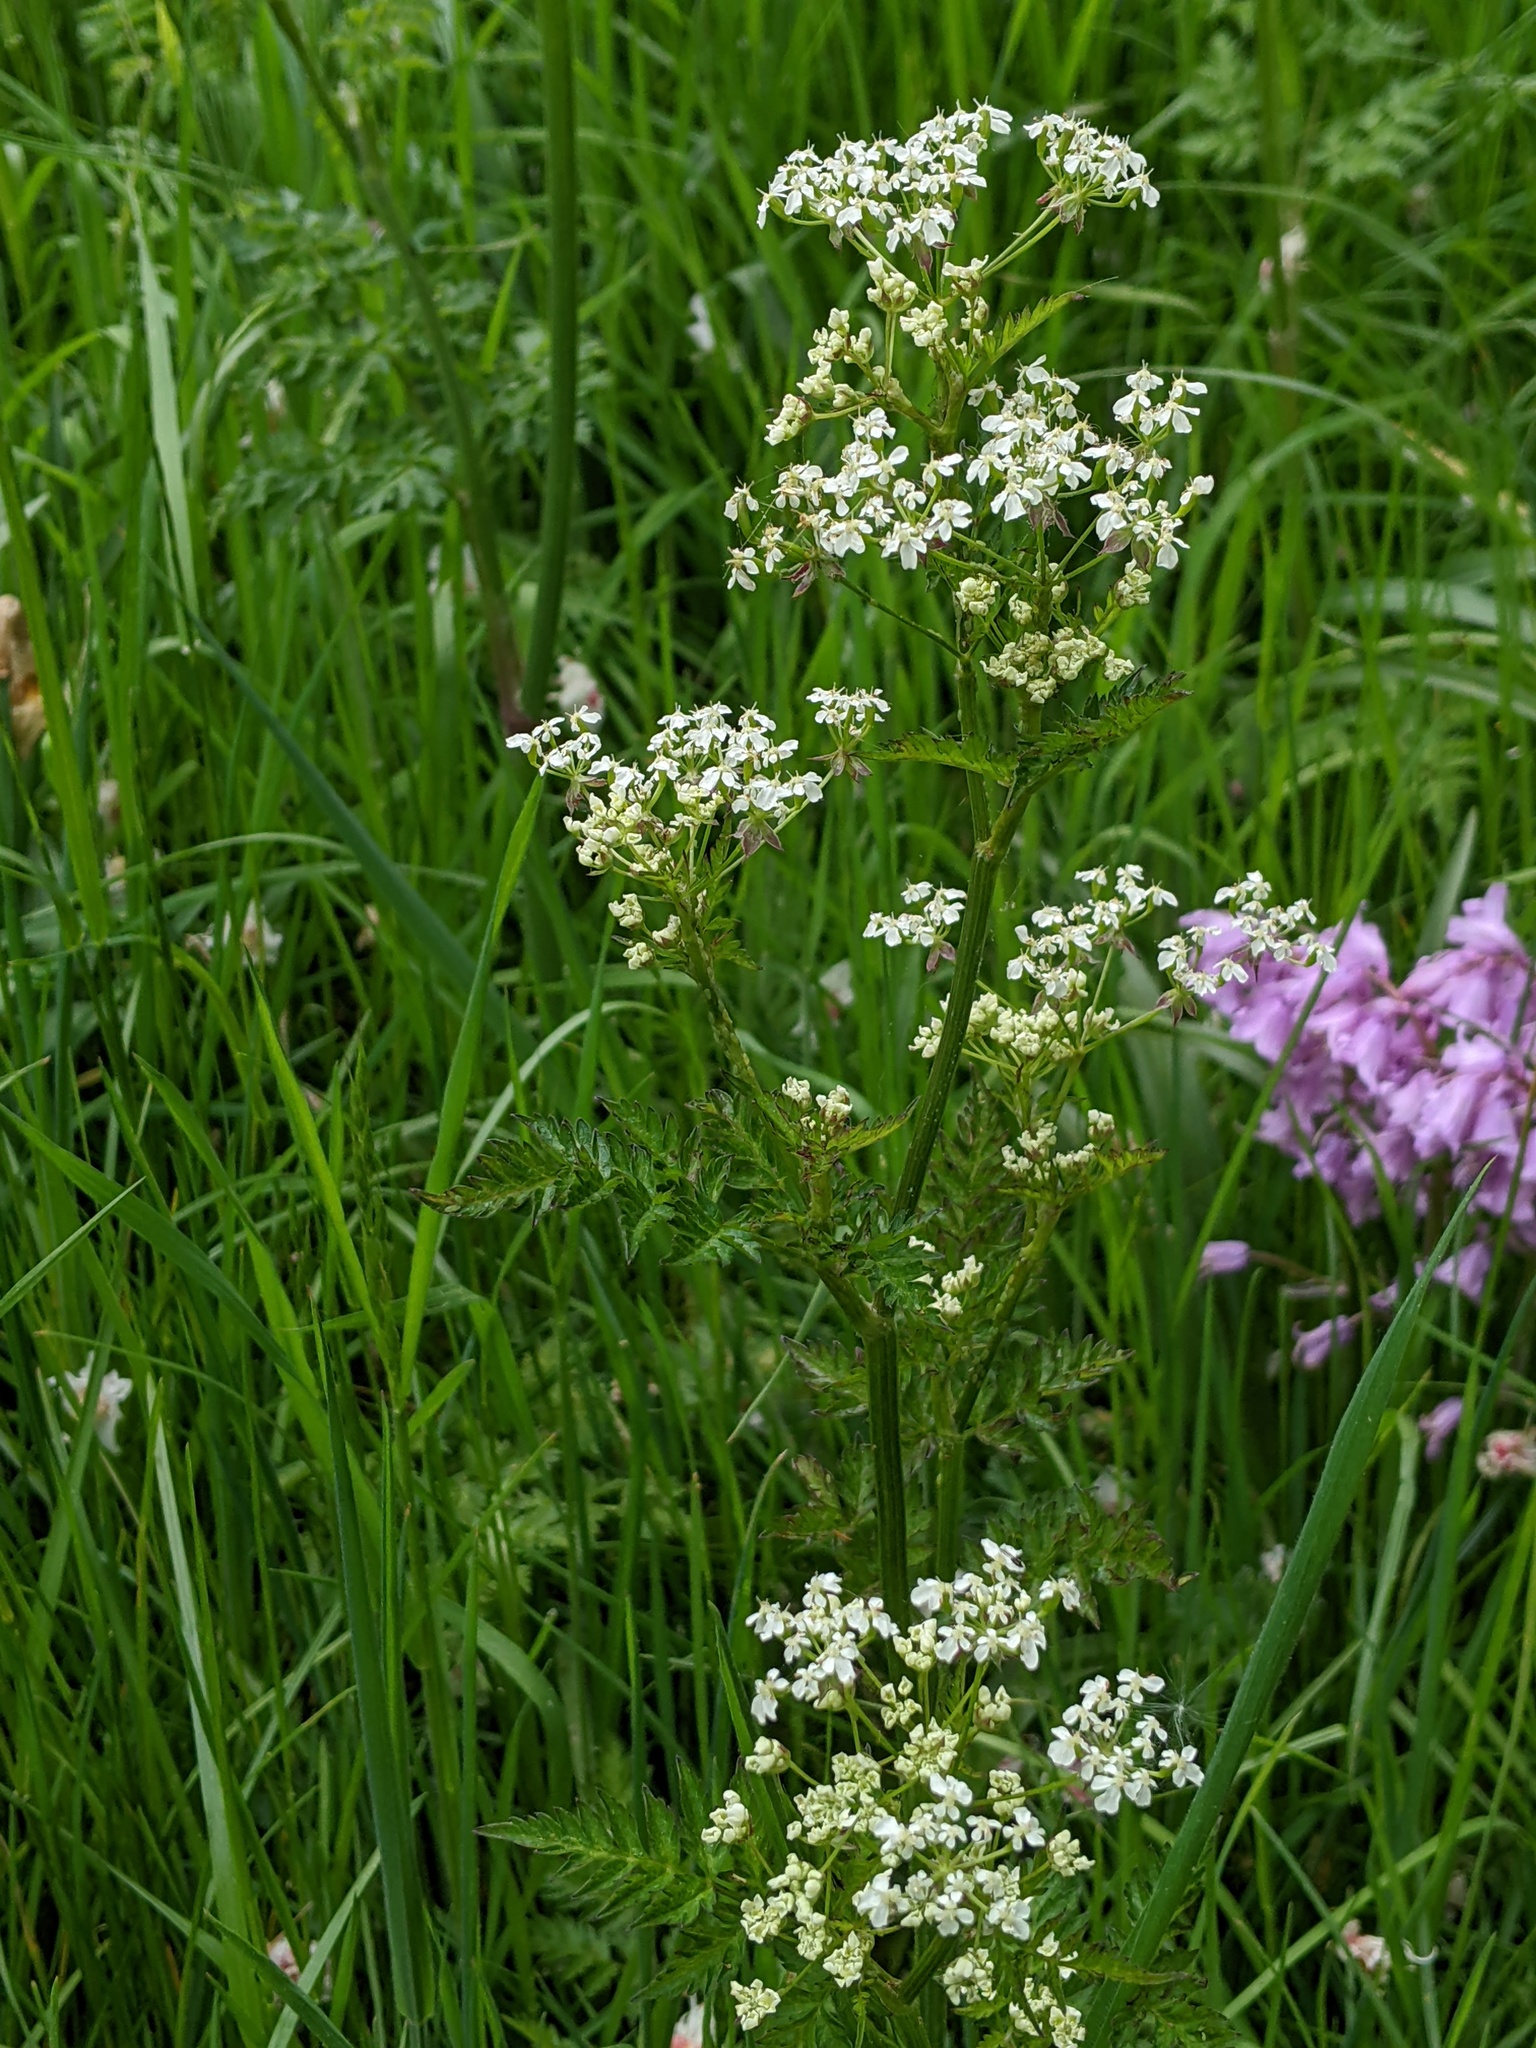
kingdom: Plantae
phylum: Tracheophyta
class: Magnoliopsida
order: Apiales
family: Apiaceae
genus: Anthriscus
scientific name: Anthriscus sylvestris
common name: Cow parsley
